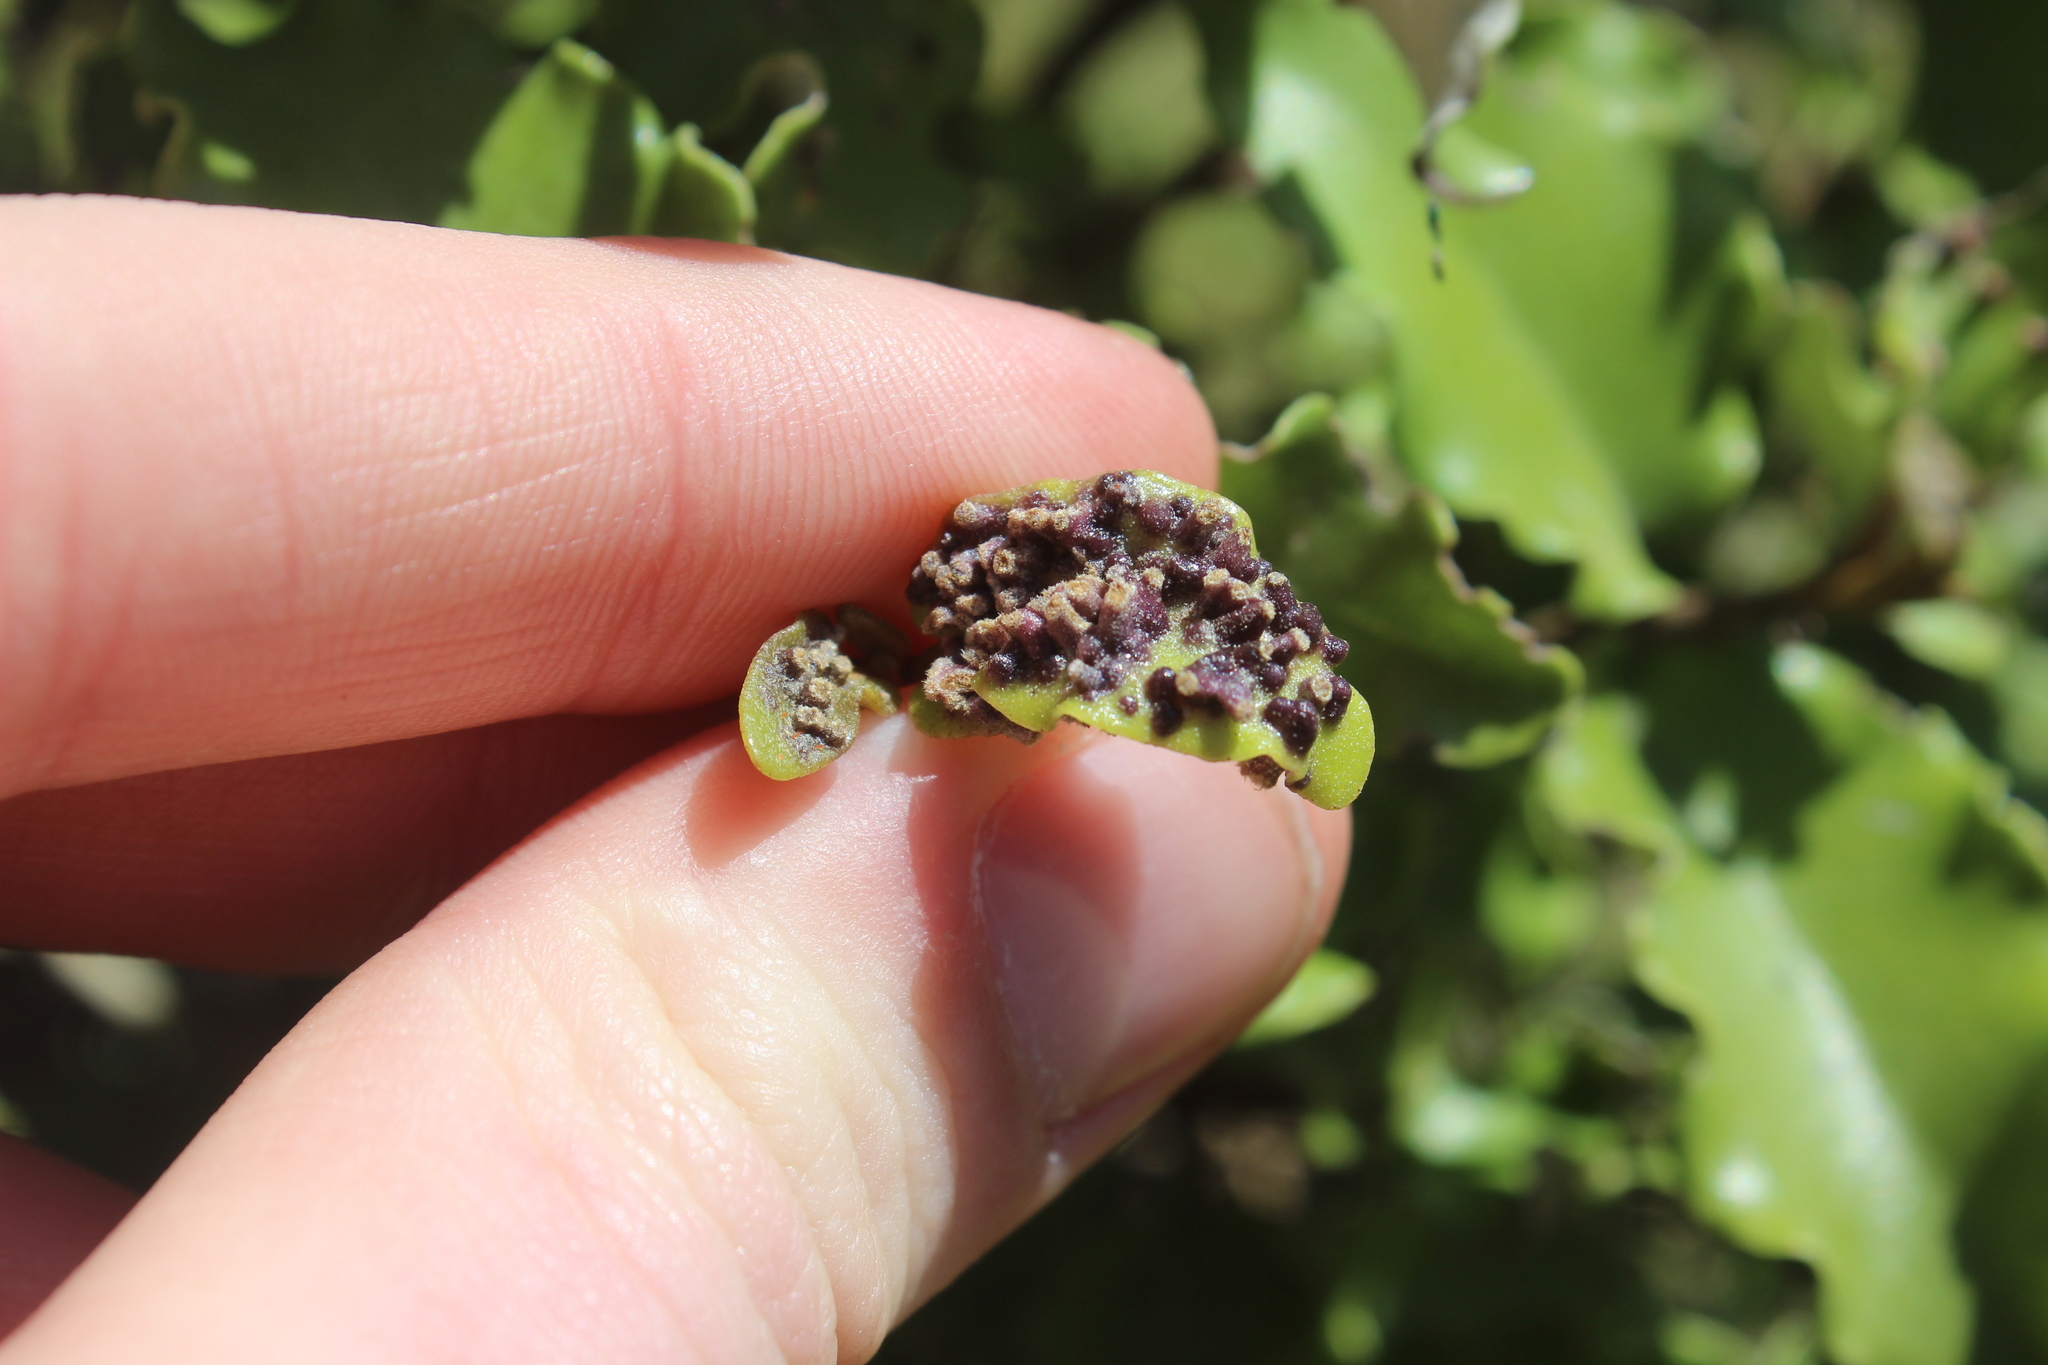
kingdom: Plantae
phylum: Tracheophyta
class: Magnoliopsida
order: Asterales
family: Asteraceae
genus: Olearia
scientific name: Olearia paniculata
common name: Akiraho
